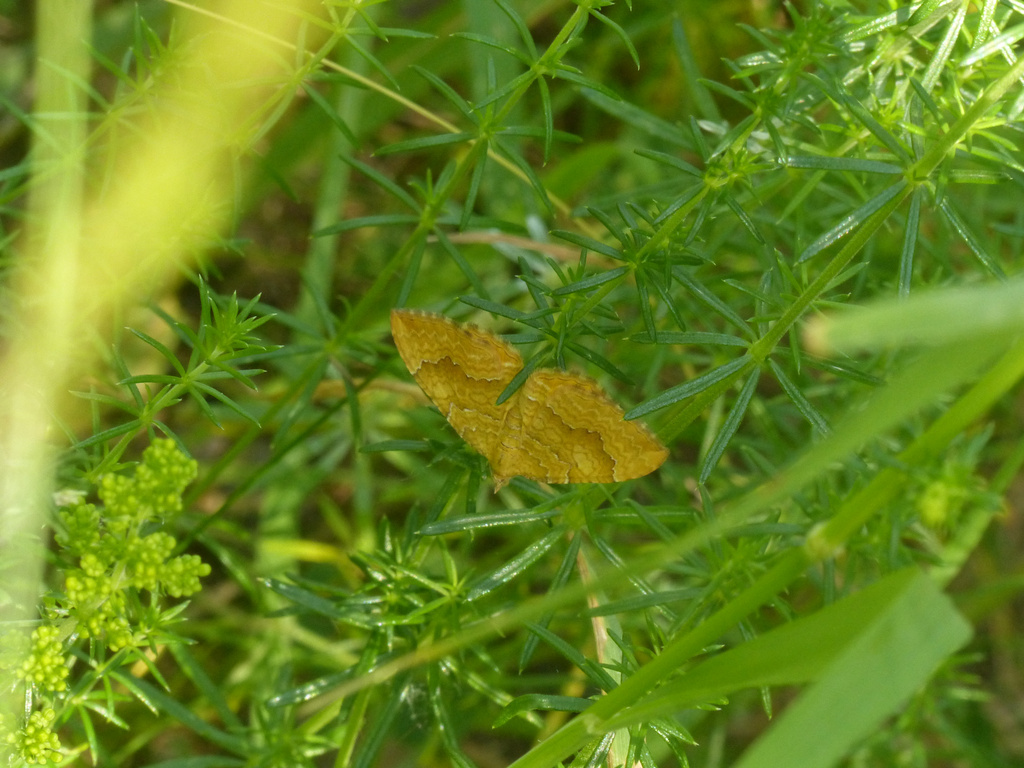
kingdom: Animalia
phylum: Arthropoda
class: Insecta
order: Lepidoptera
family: Geometridae
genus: Camptogramma
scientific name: Camptogramma bilineata
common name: Yellow shell
